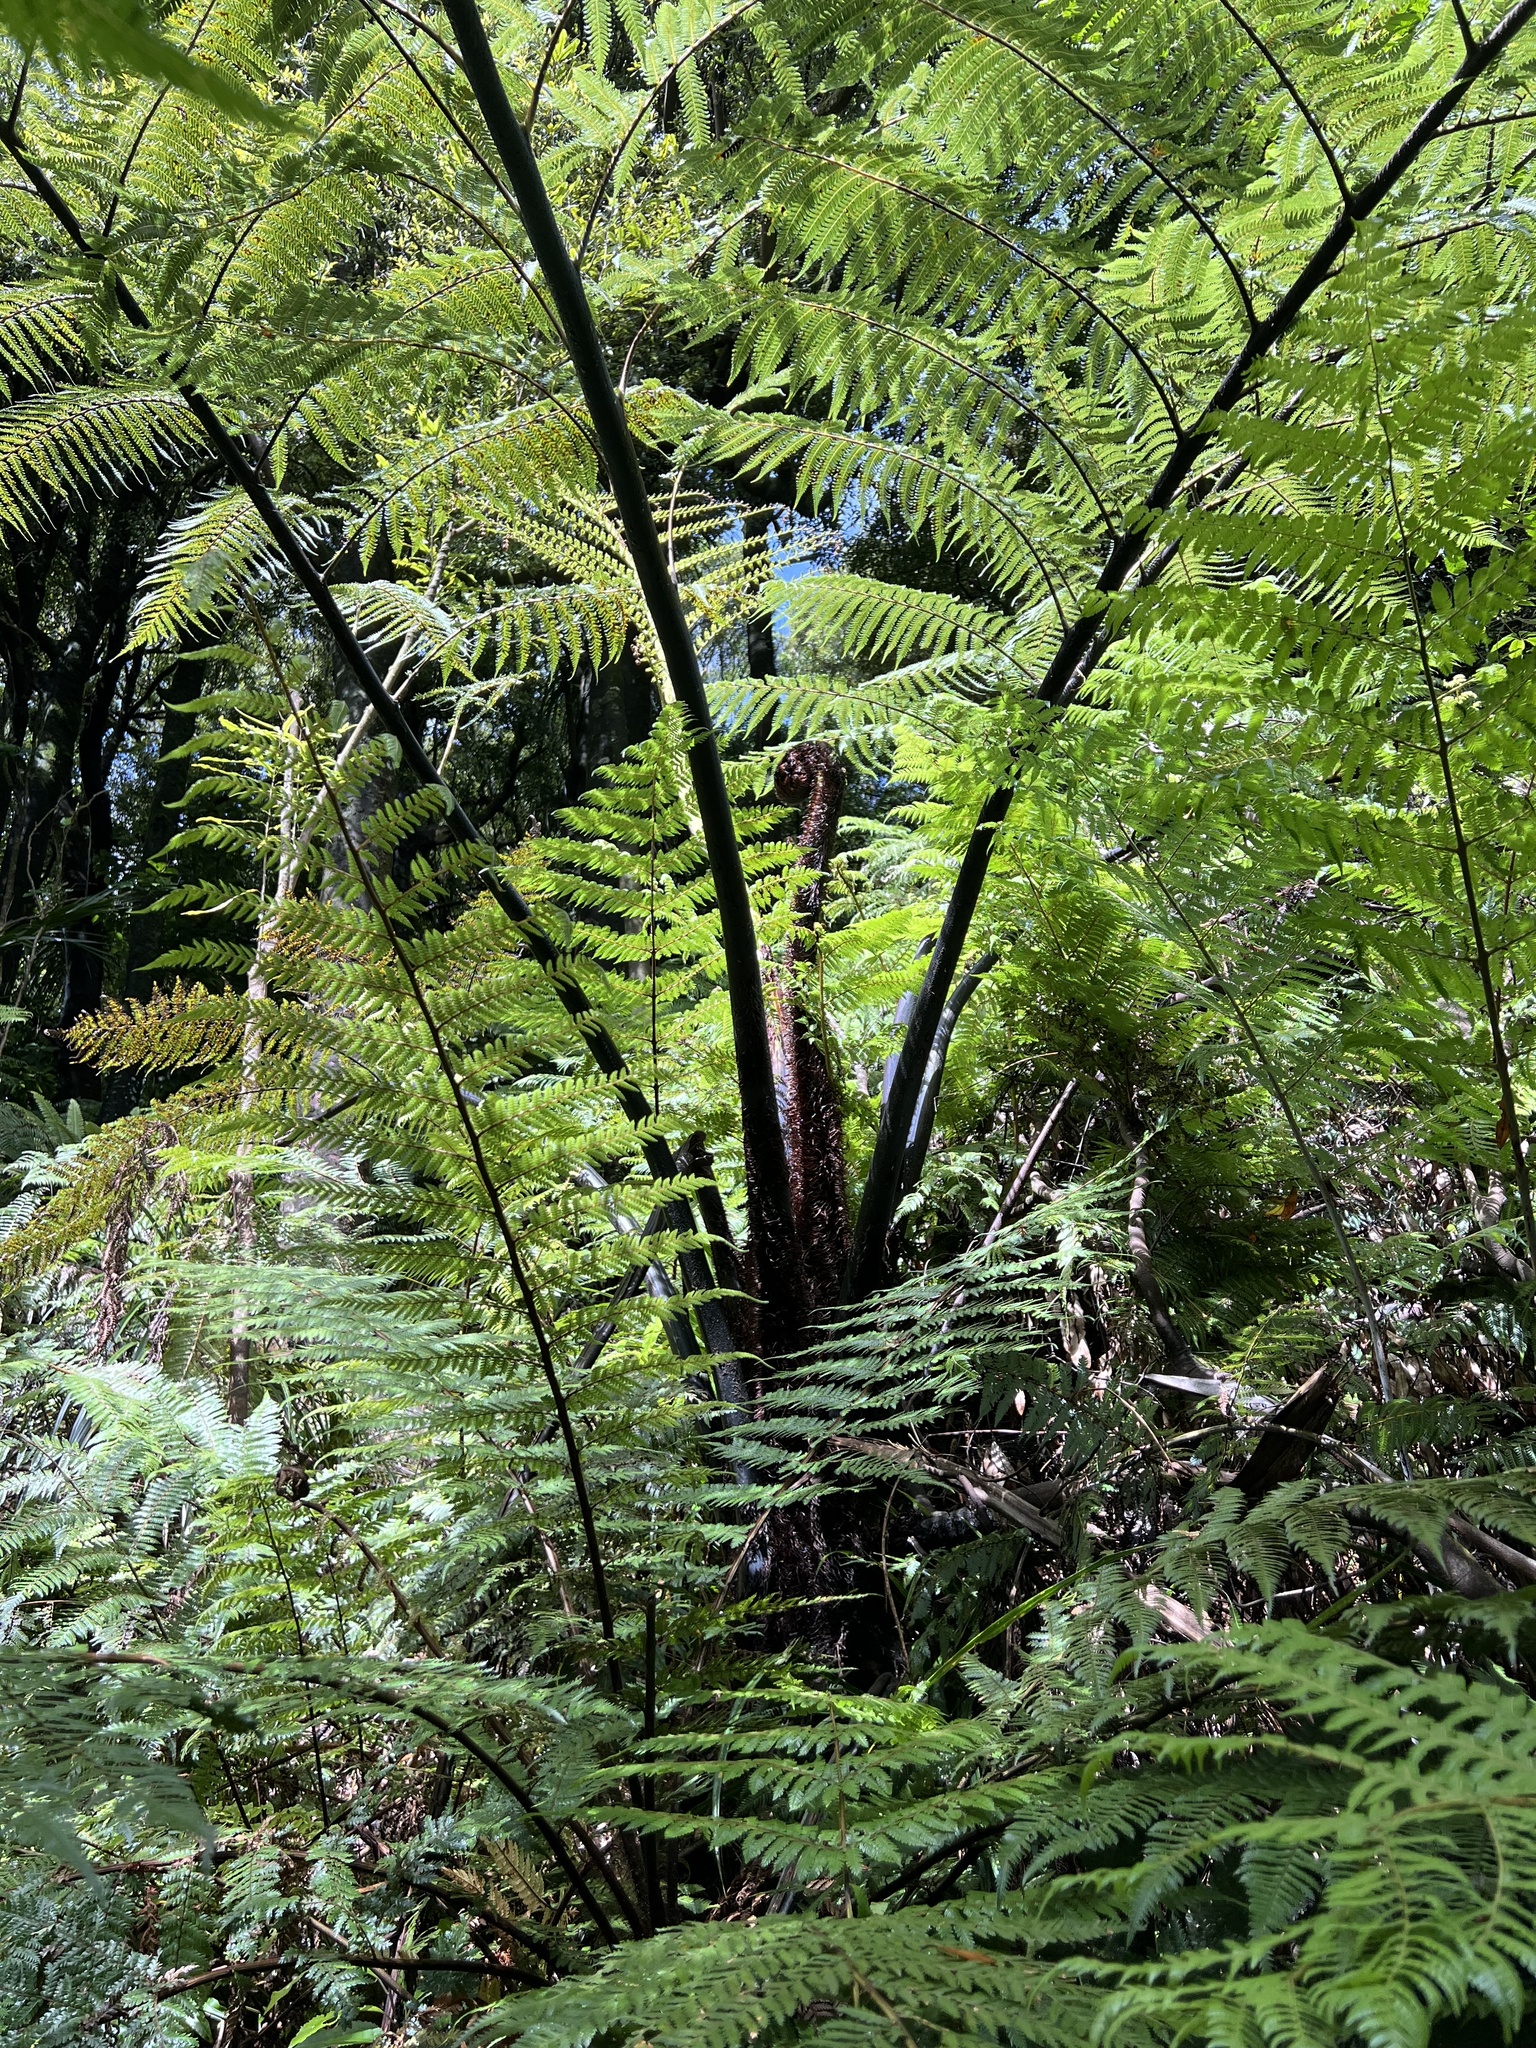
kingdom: Plantae
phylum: Tracheophyta
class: Polypodiopsida
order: Cyatheales
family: Cyatheaceae
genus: Sphaeropteris
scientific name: Sphaeropteris medullaris
